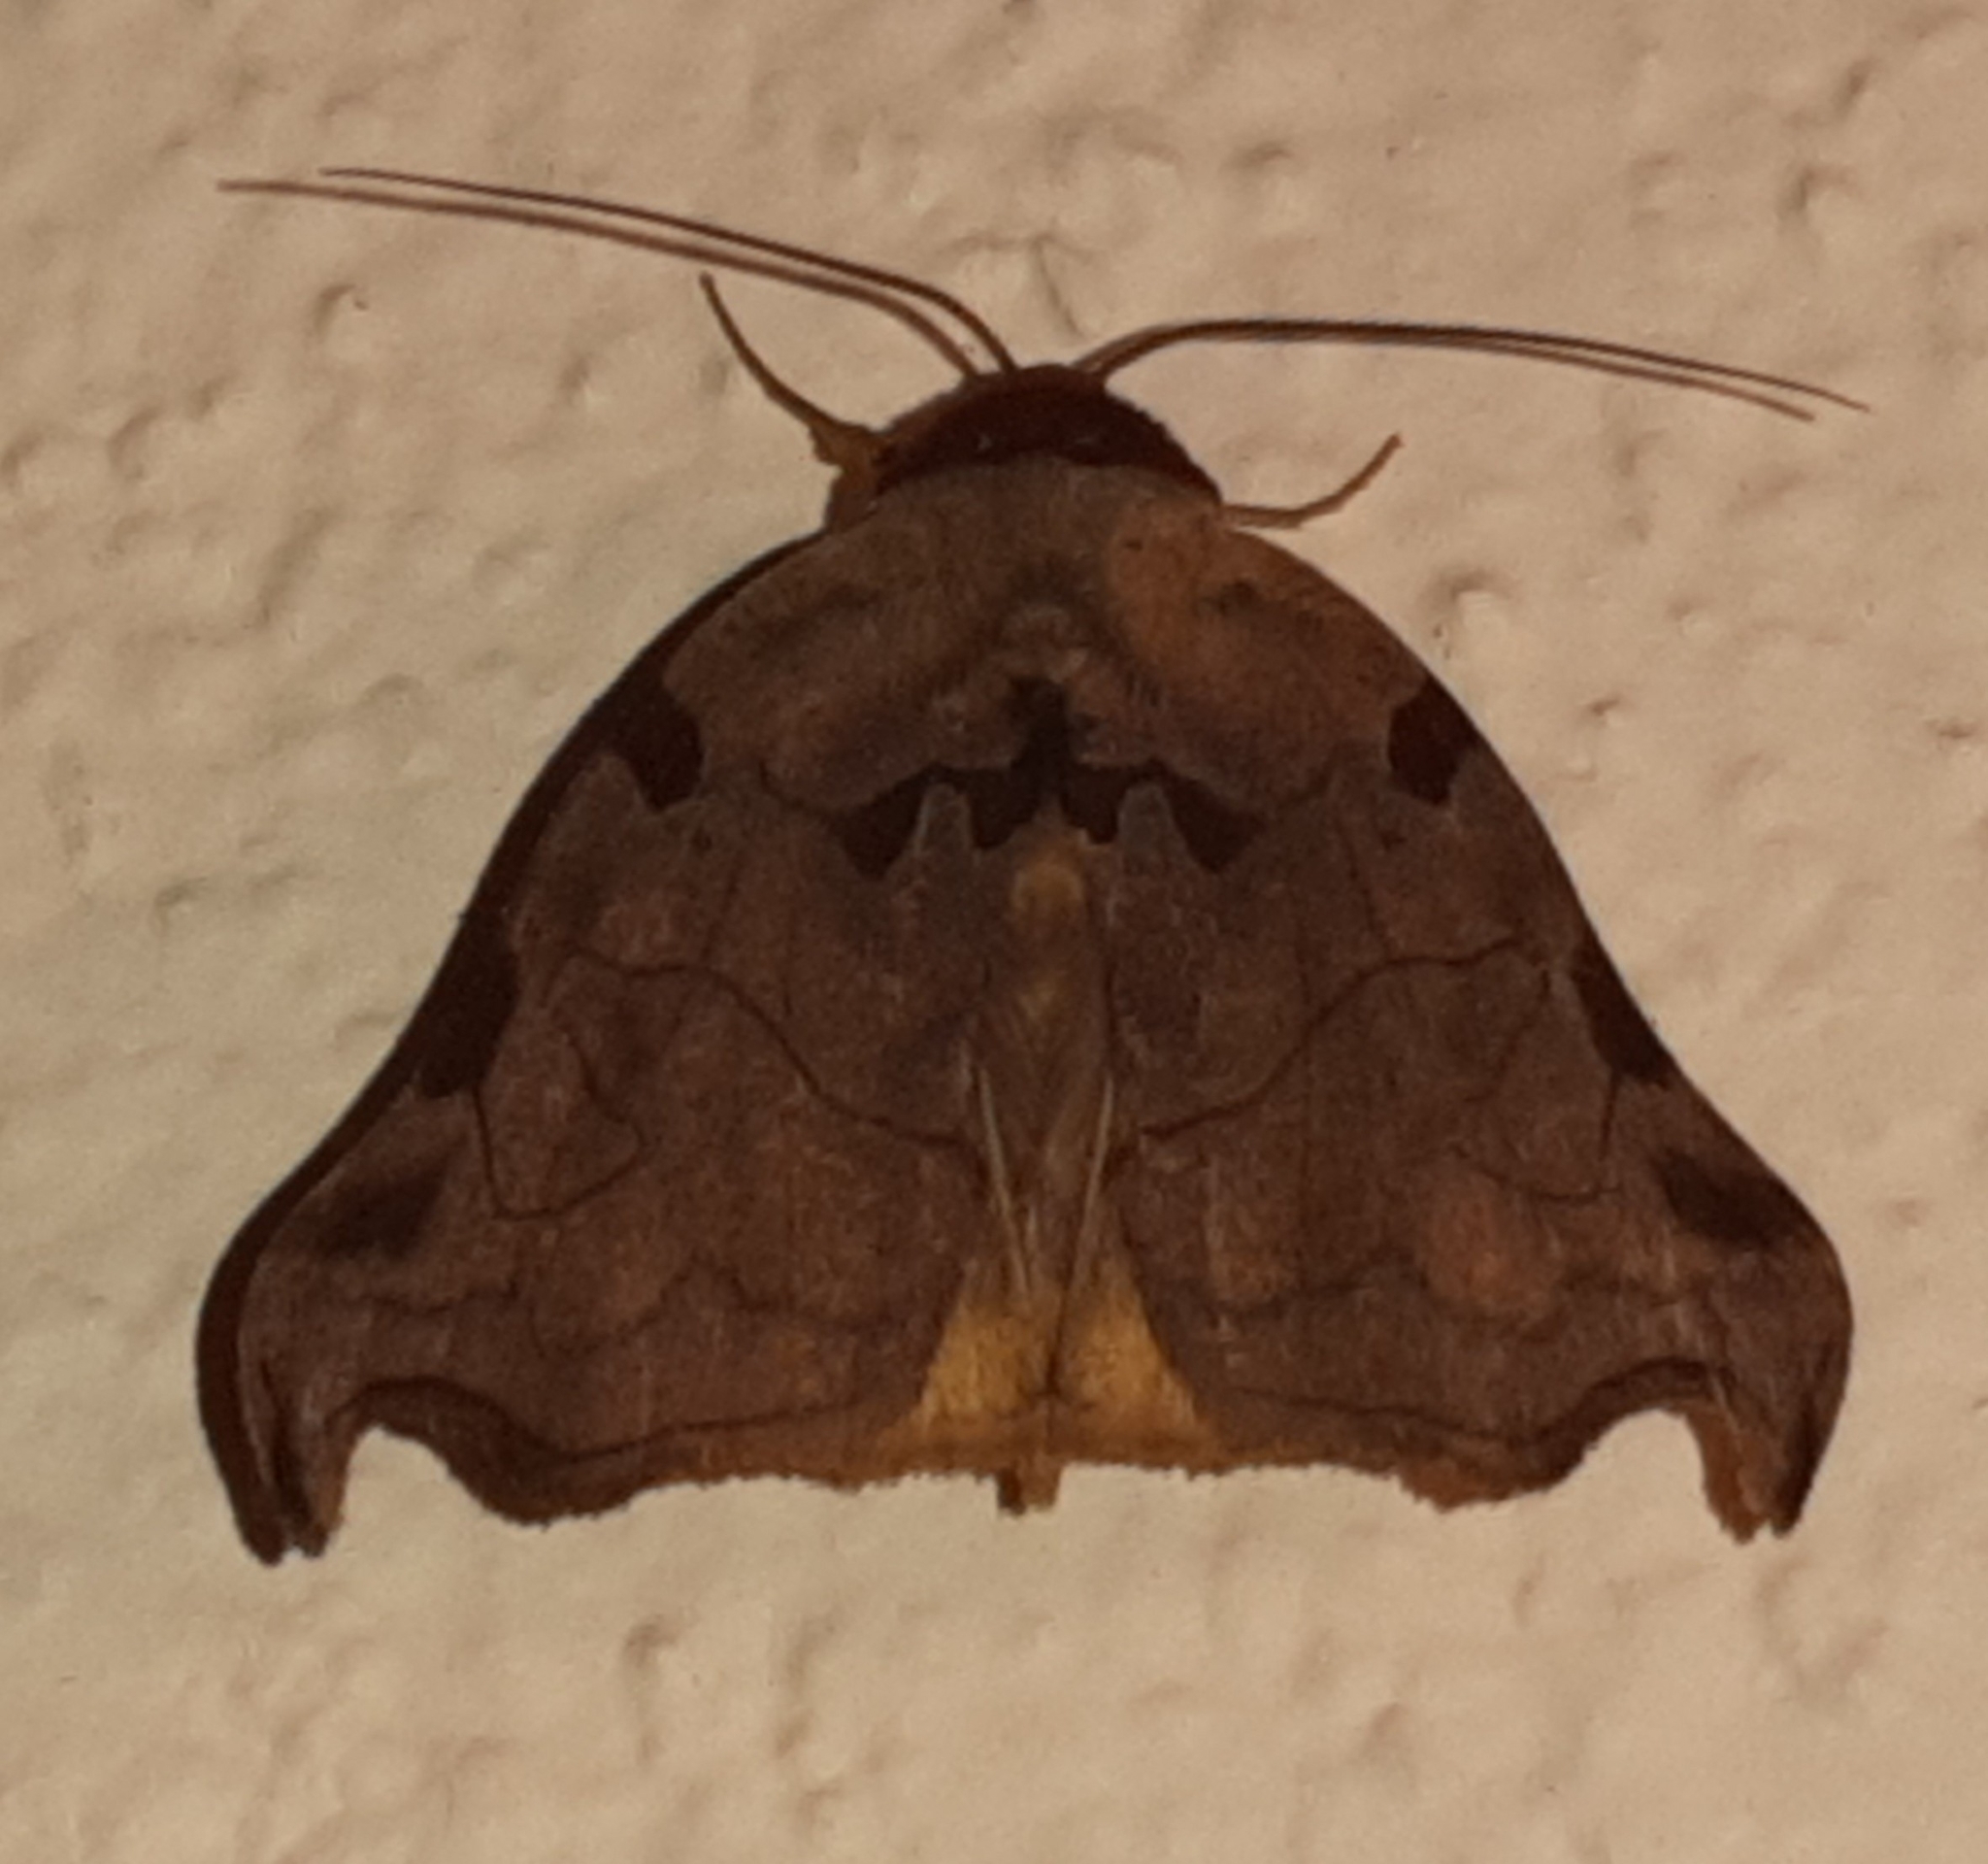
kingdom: Animalia
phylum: Arthropoda
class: Insecta
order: Lepidoptera
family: Erebidae
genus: Lephana
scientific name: Lephana metacrocea
